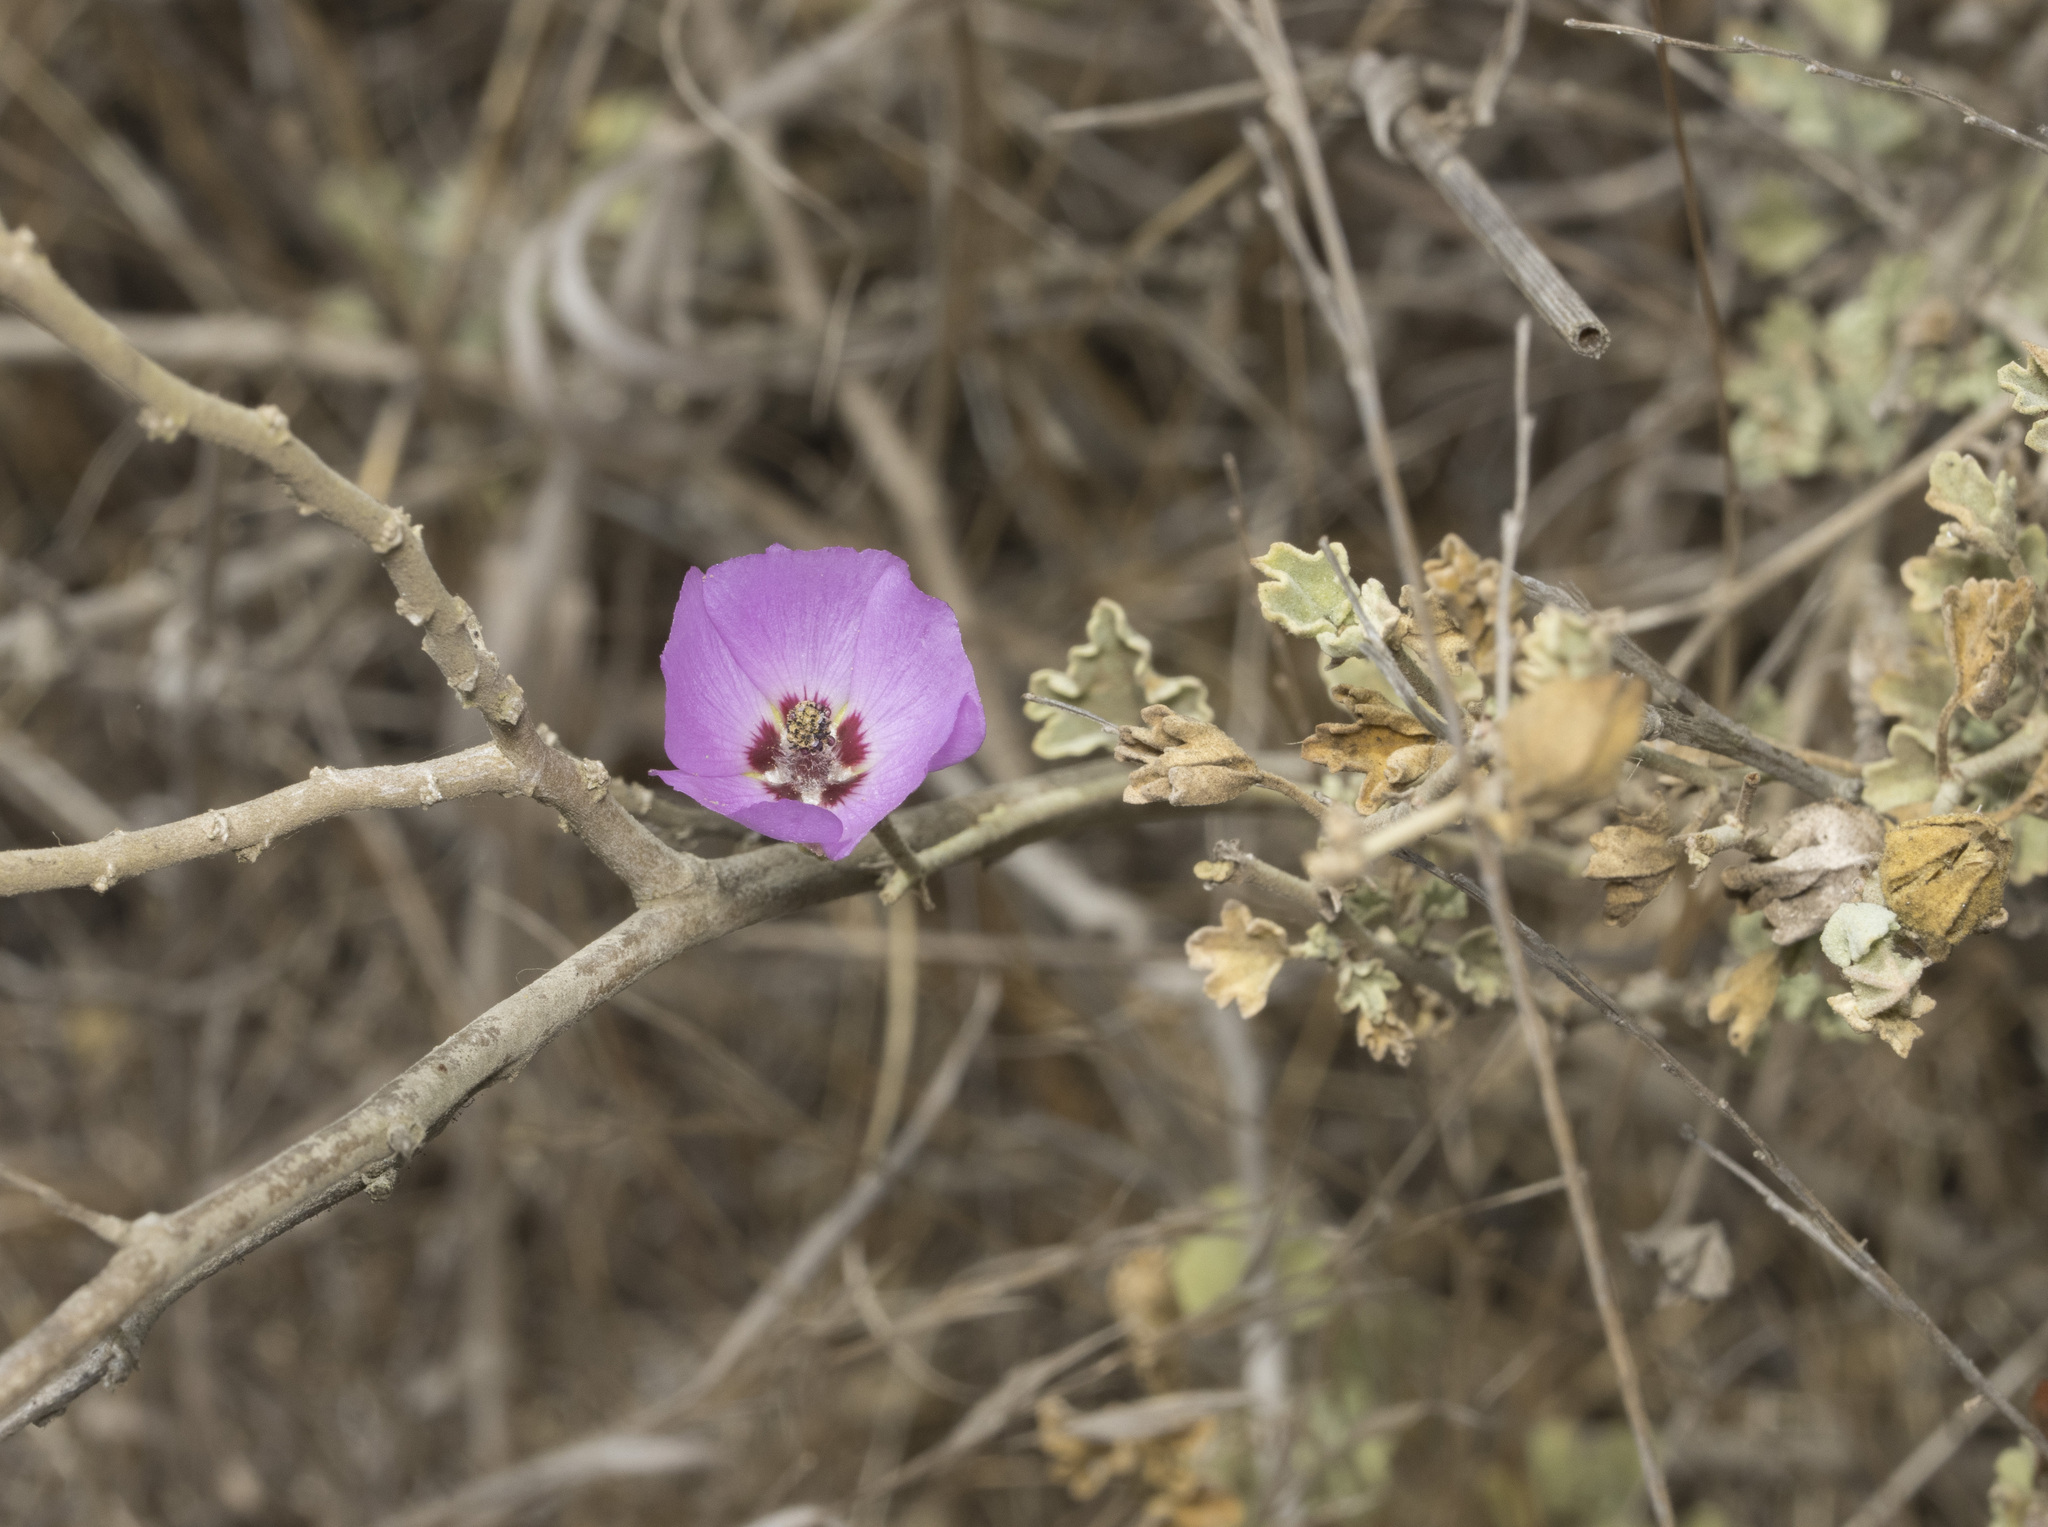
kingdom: Plantae
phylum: Tracheophyta
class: Magnoliopsida
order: Malvales
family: Malvaceae
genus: Sphaeralcea
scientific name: Sphaeralcea obtusiloba
